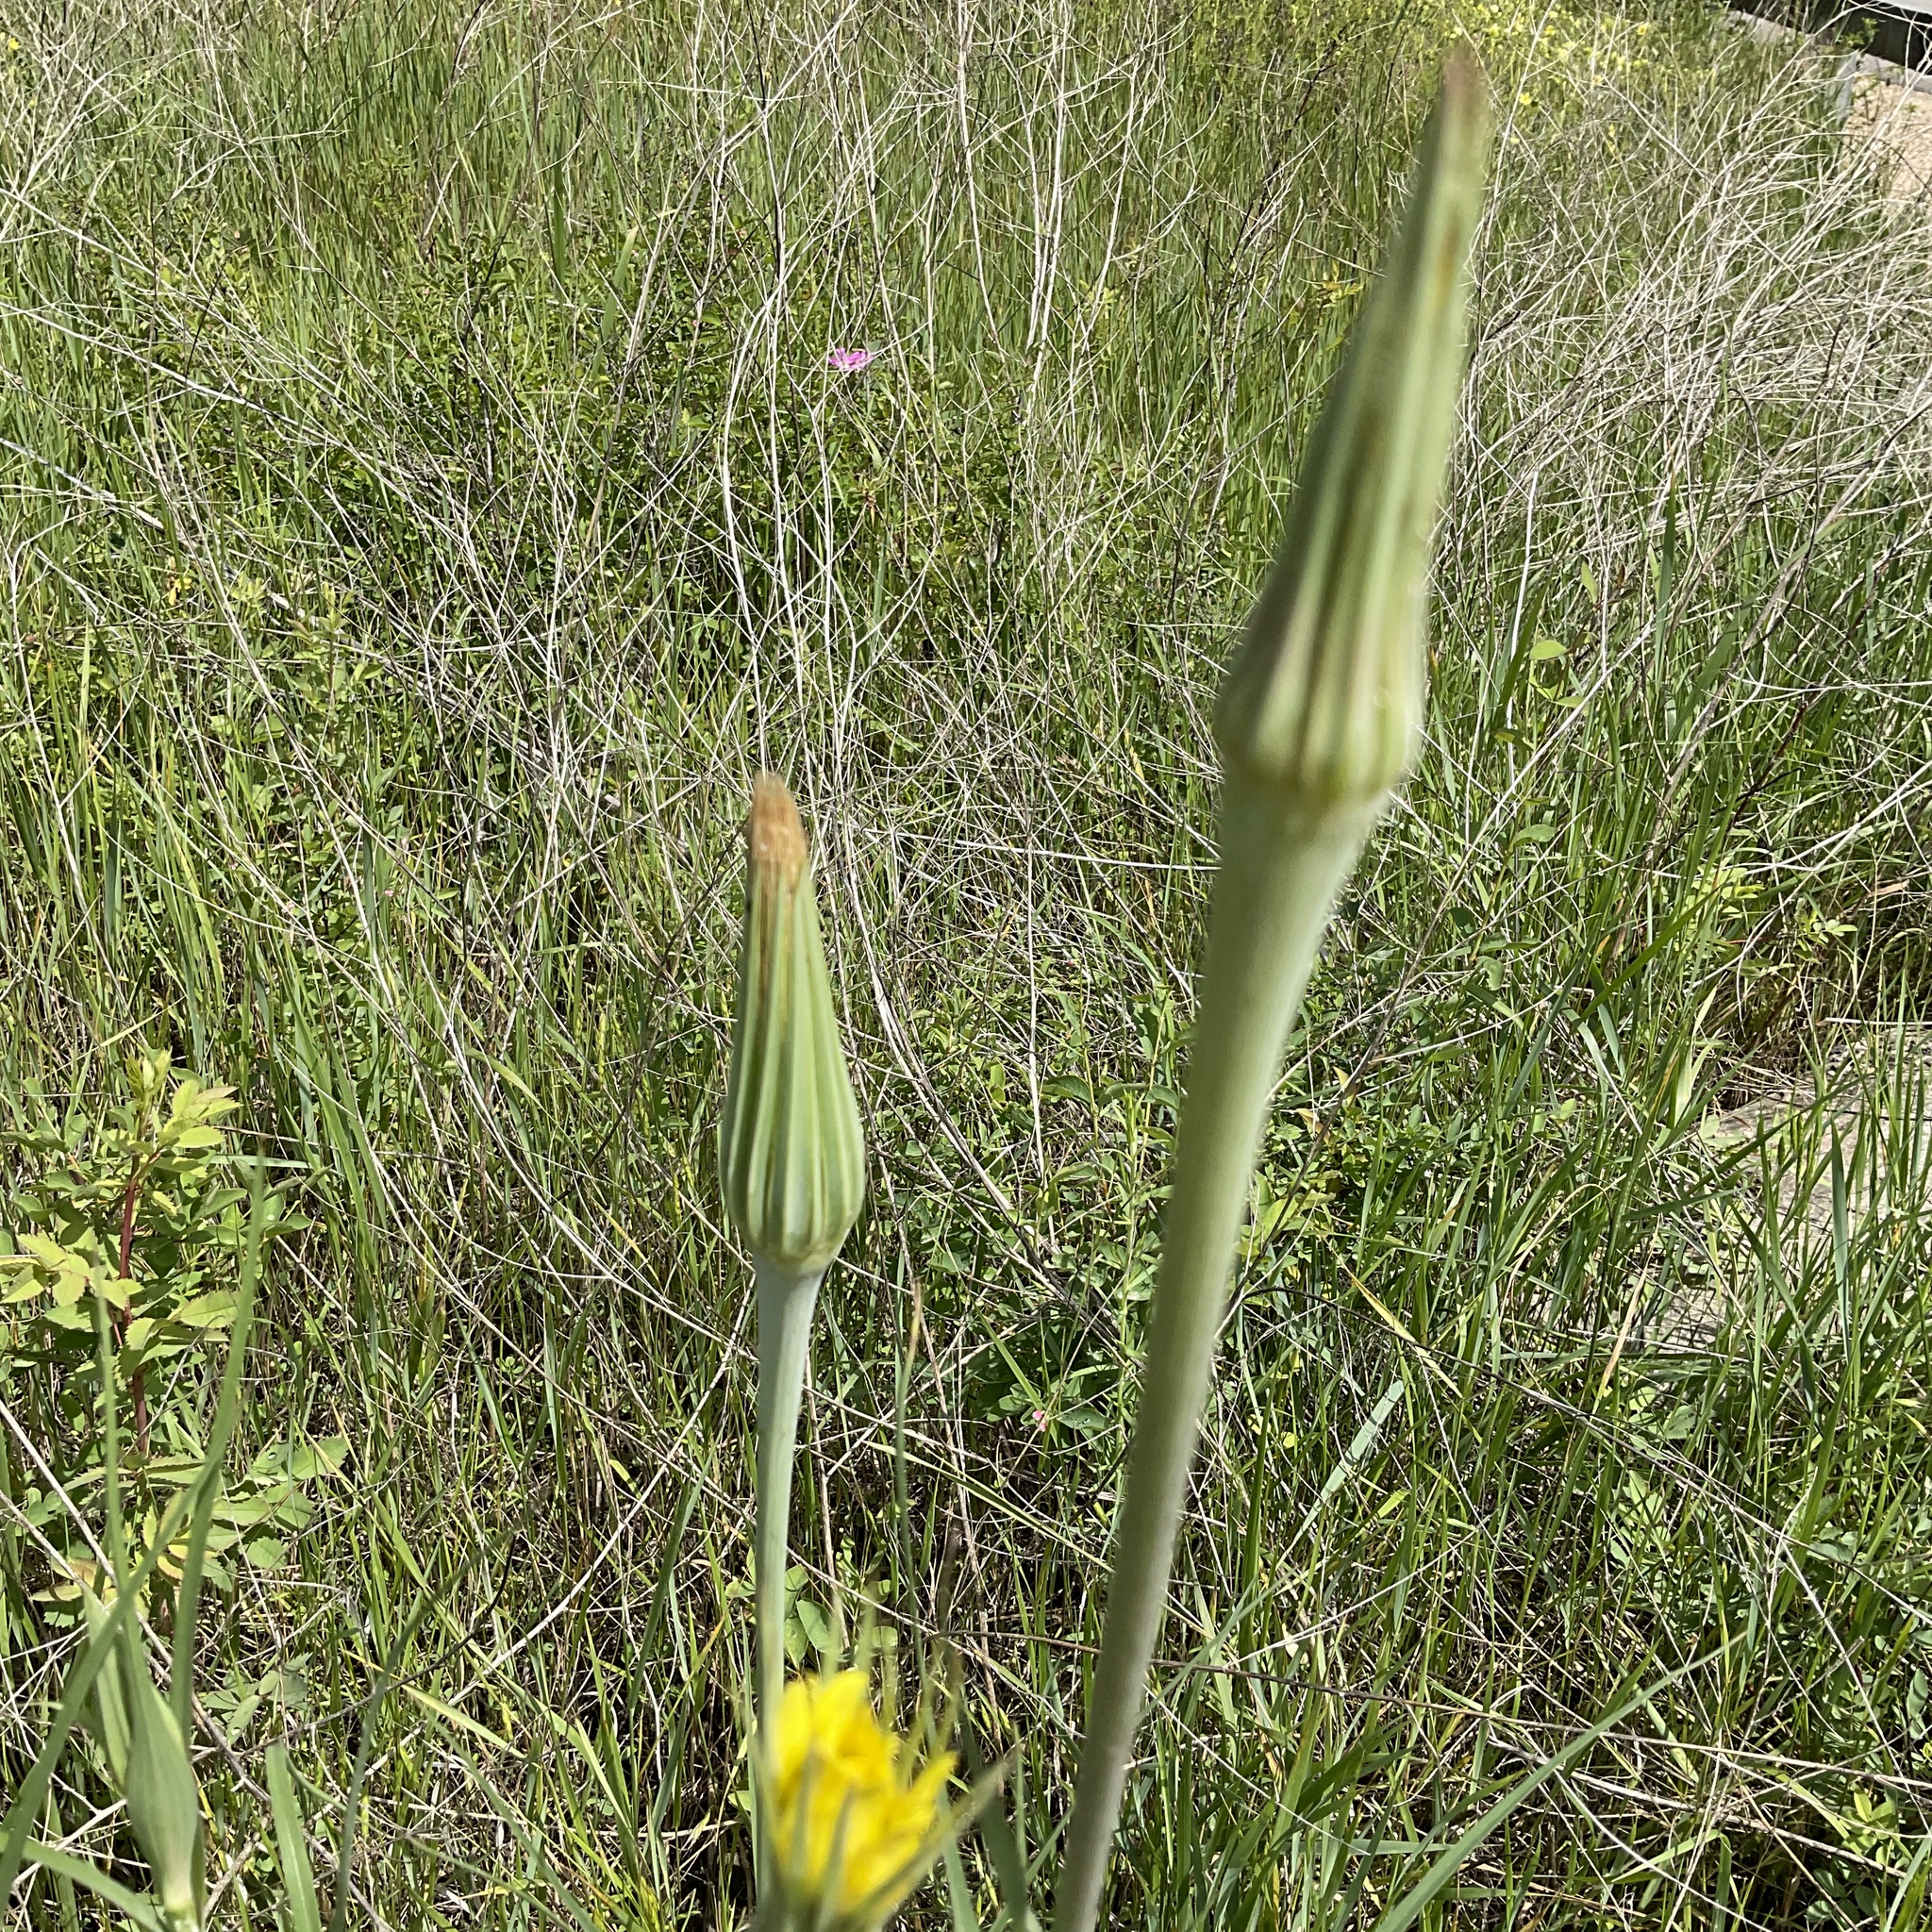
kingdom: Plantae
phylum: Tracheophyta
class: Magnoliopsida
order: Asterales
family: Asteraceae
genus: Tragopogon
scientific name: Tragopogon dubius
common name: Yellow salsify
